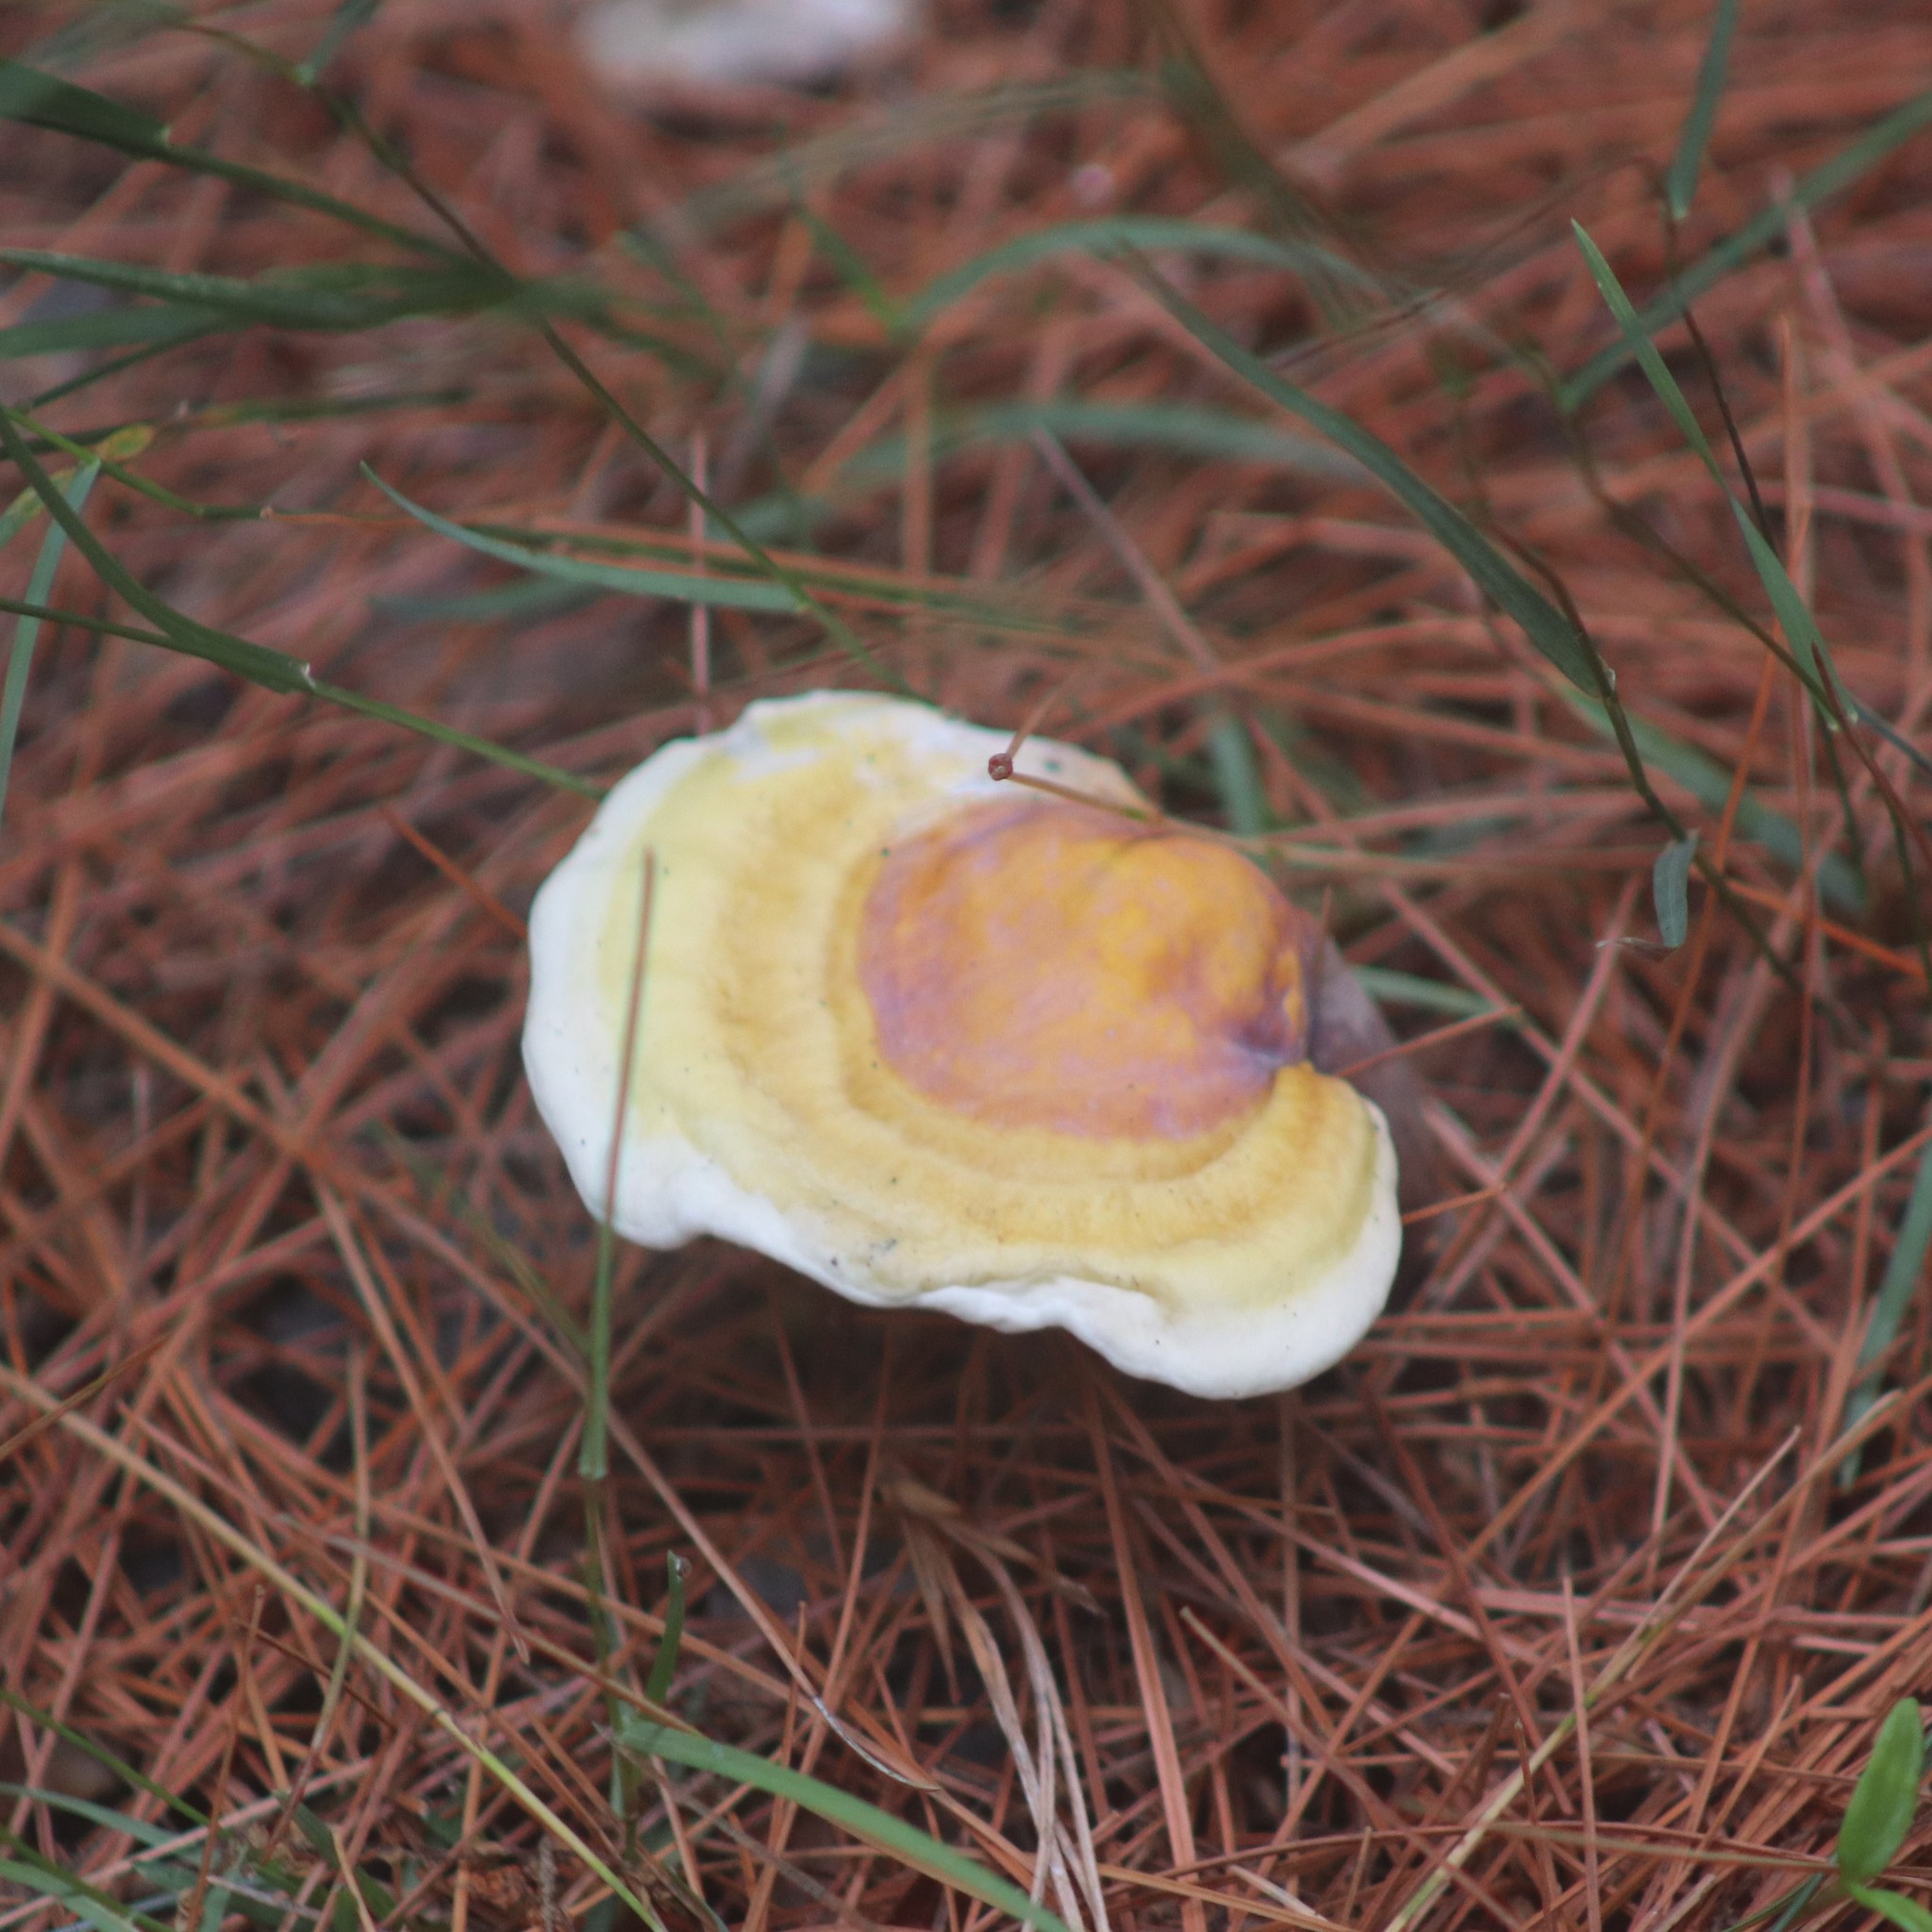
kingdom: Fungi
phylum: Basidiomycota
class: Agaricomycetes
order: Polyporales
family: Polyporaceae
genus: Ganoderma
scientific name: Ganoderma curtisii
